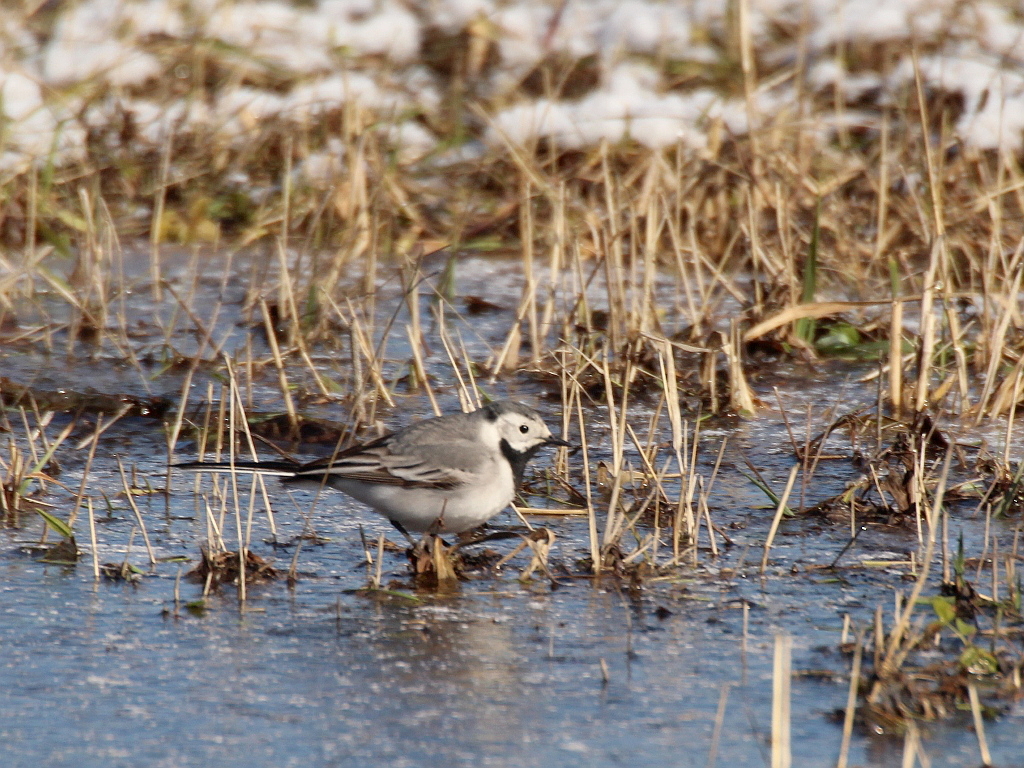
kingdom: Animalia
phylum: Chordata
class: Aves
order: Passeriformes
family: Motacillidae
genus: Motacilla
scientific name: Motacilla alba
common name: White wagtail
